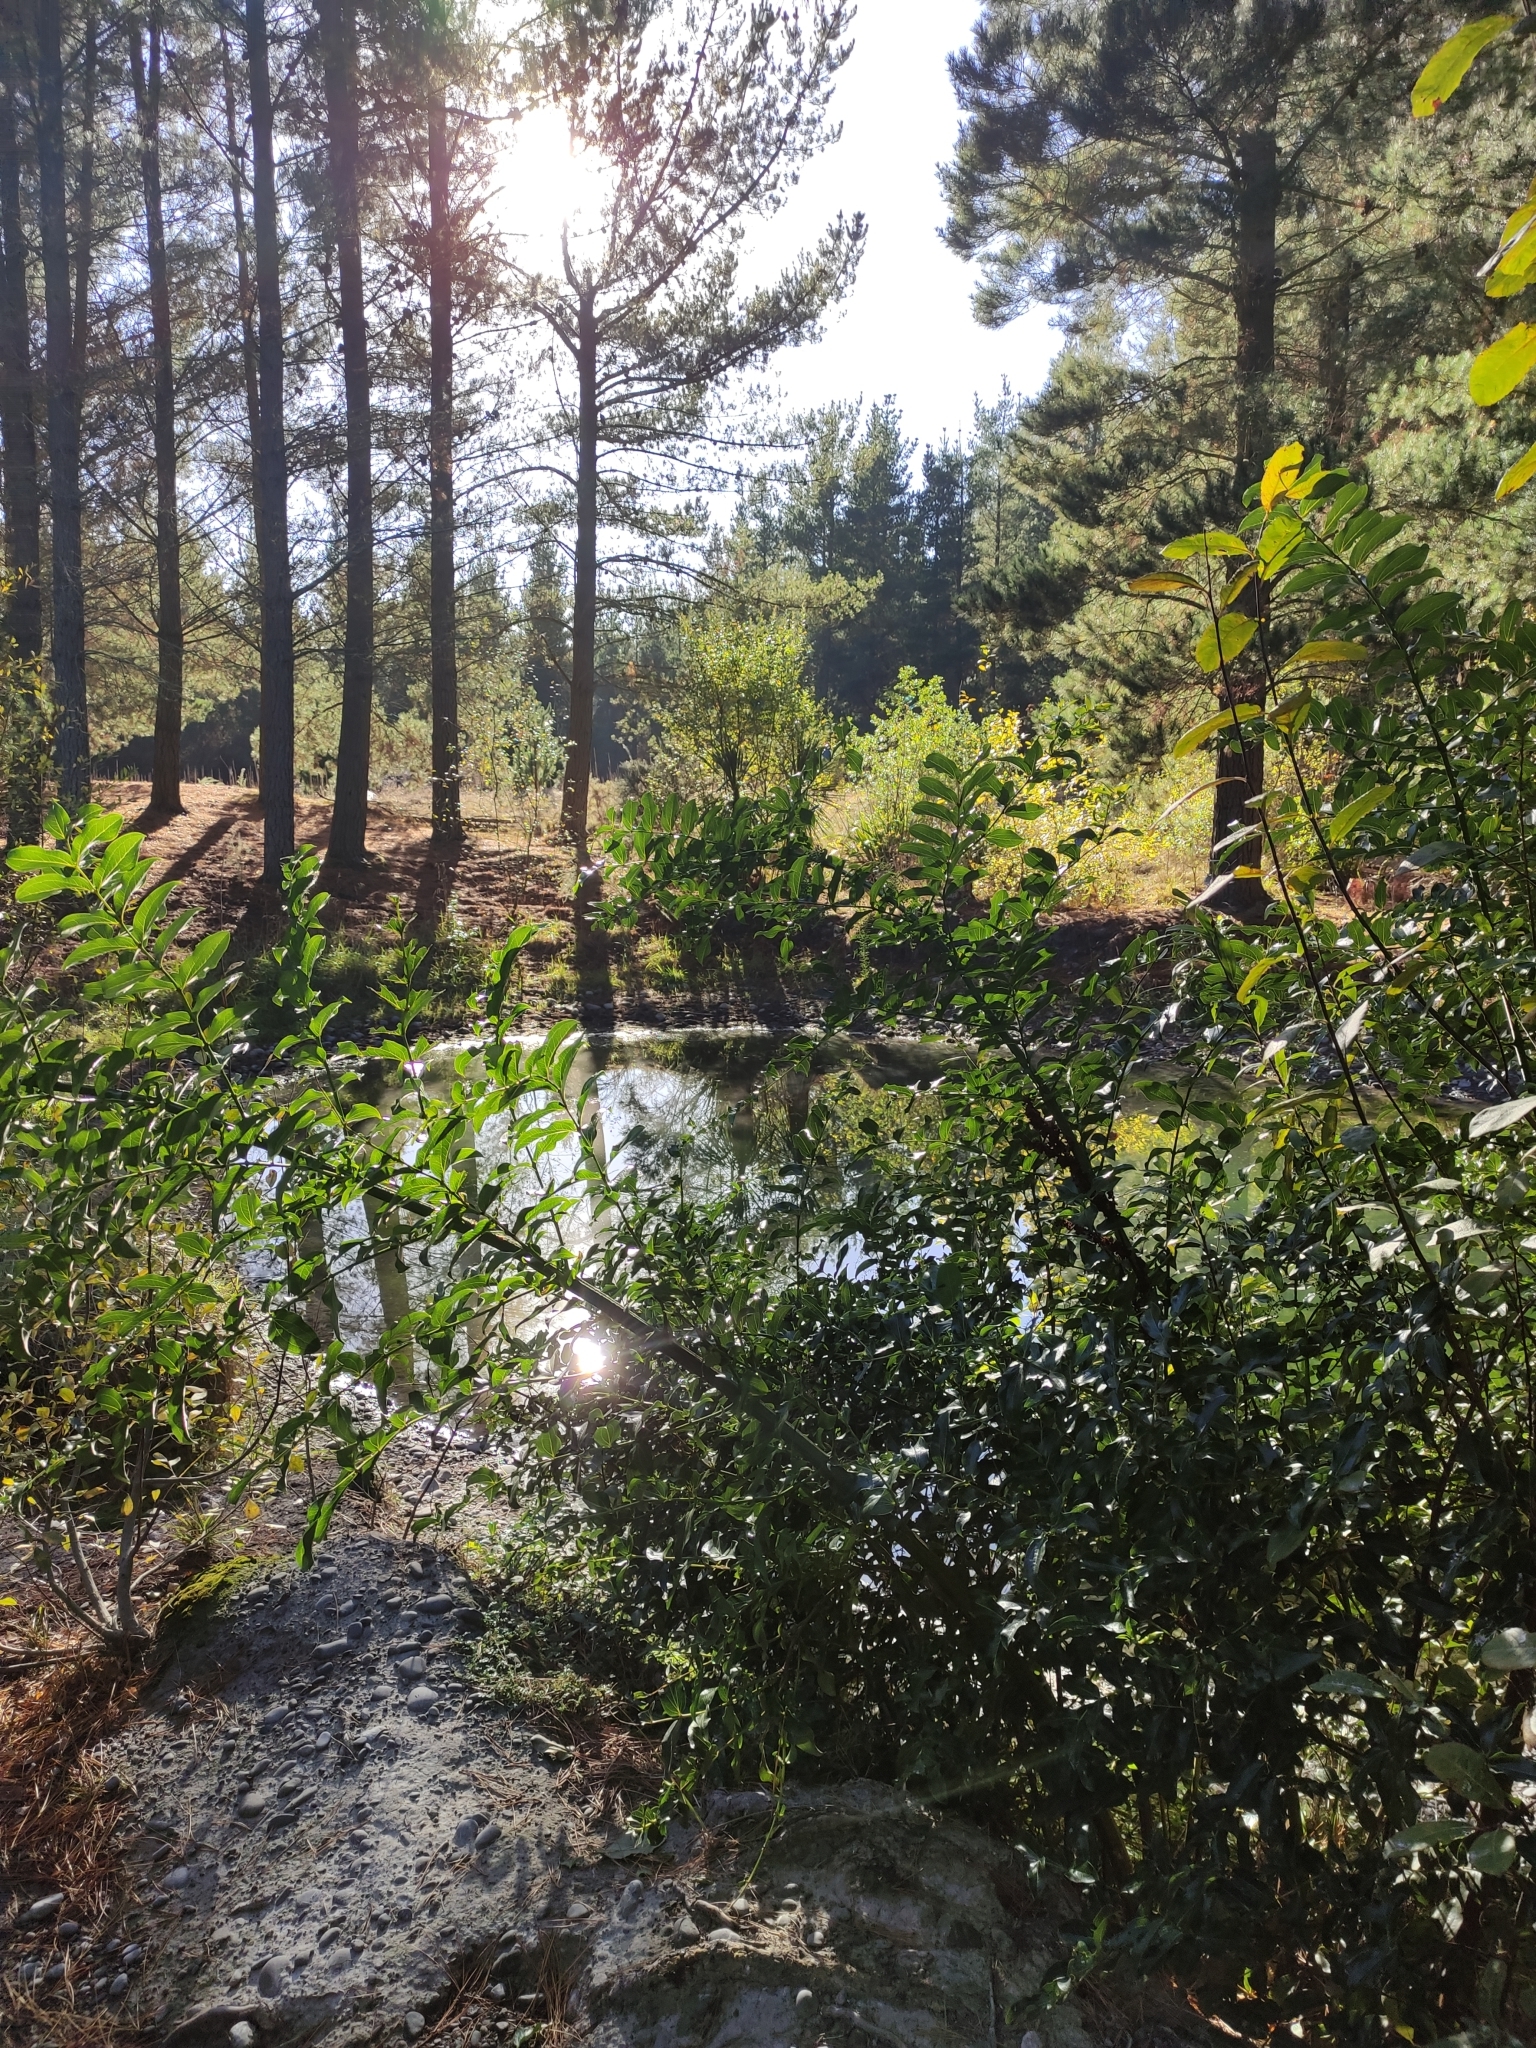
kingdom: Plantae
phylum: Tracheophyta
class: Magnoliopsida
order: Cucurbitales
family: Coriariaceae
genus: Coriaria
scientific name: Coriaria arborea
